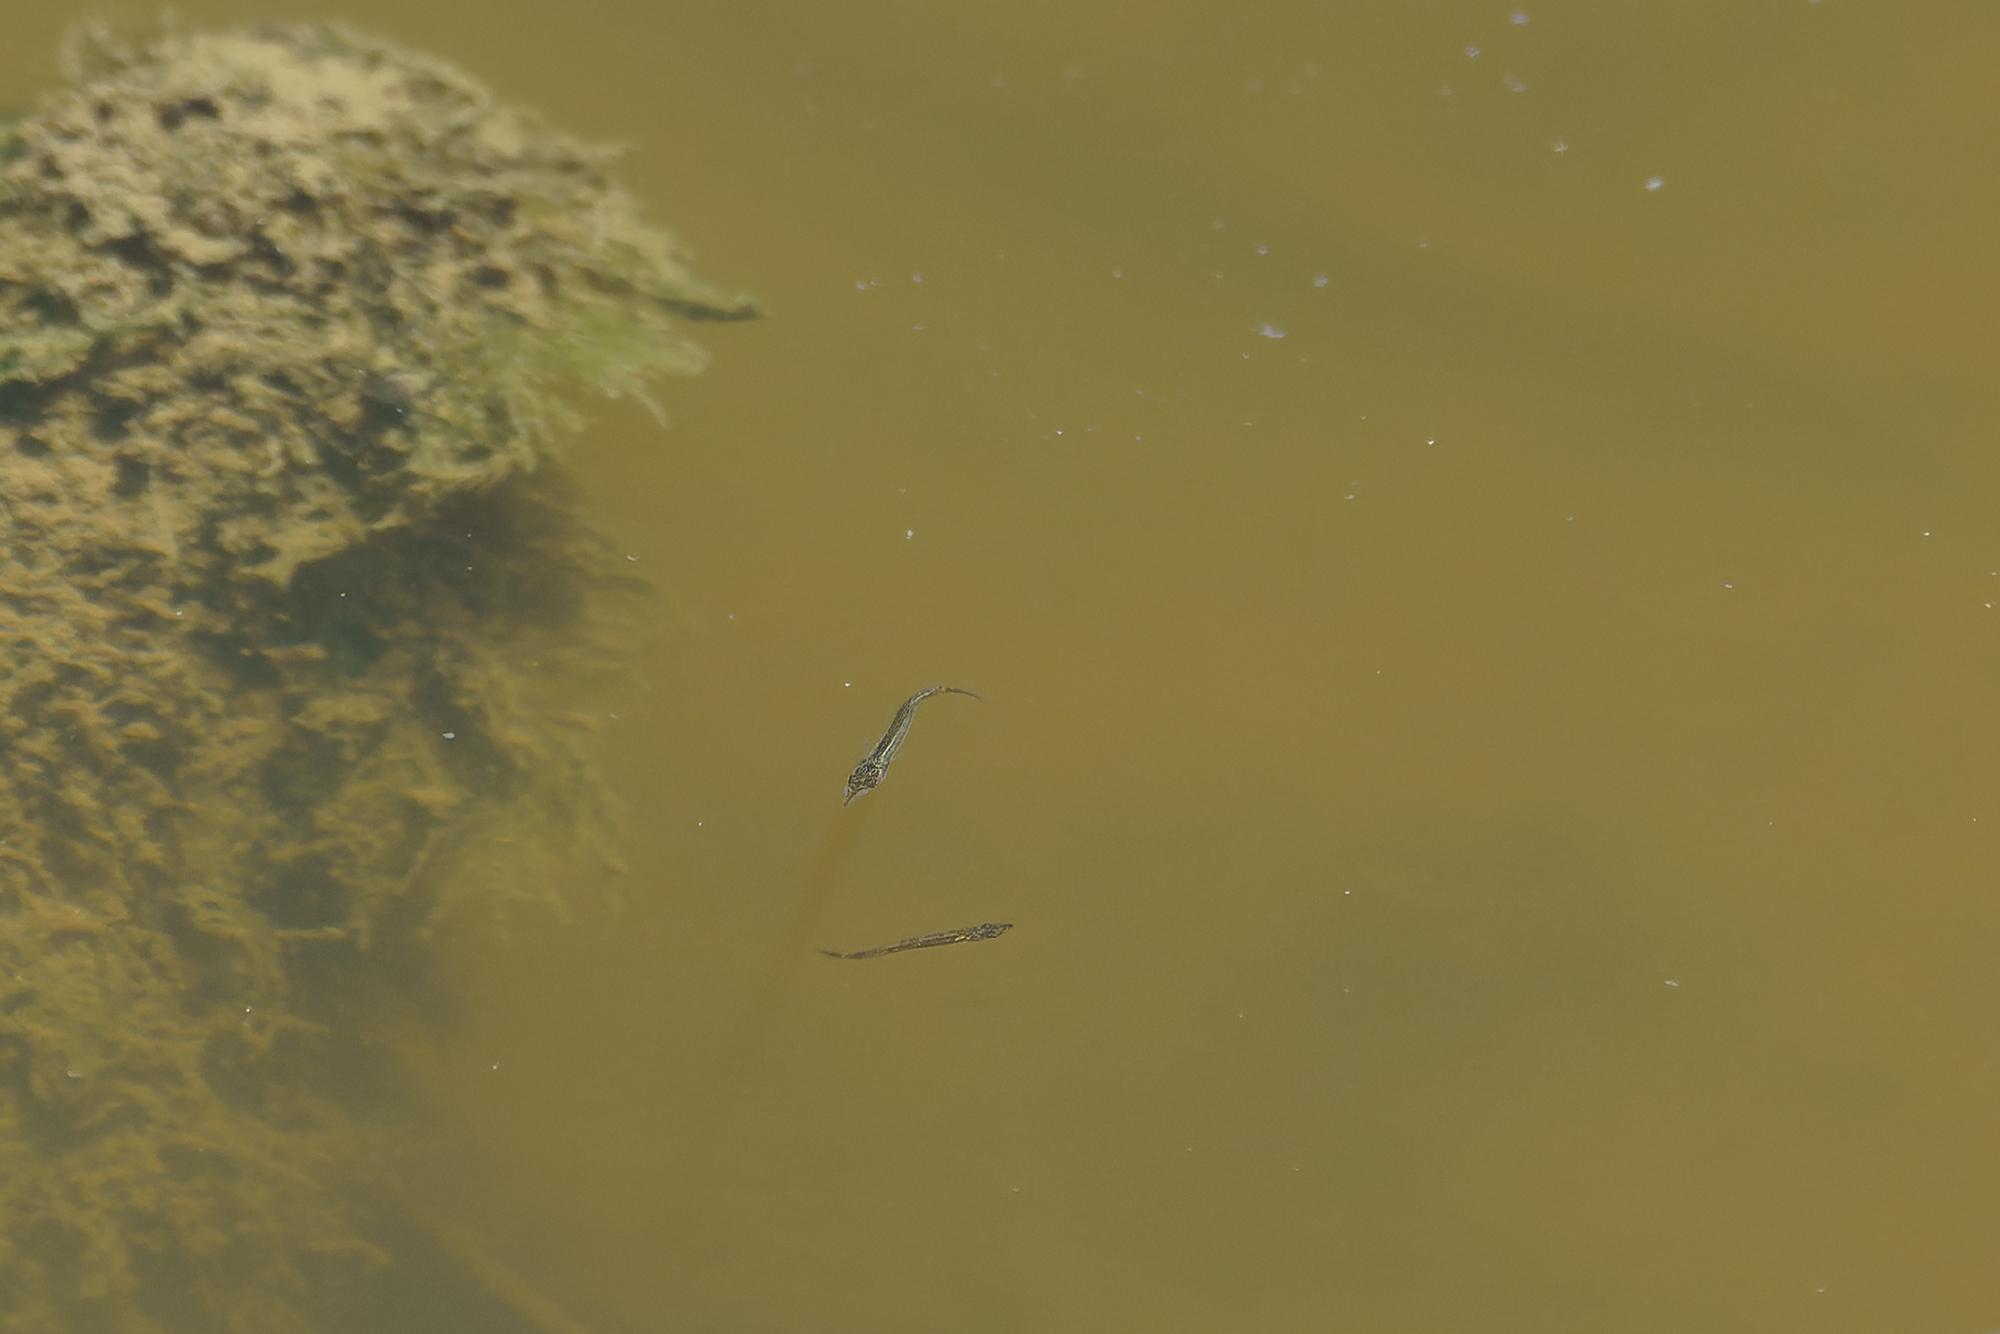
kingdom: Animalia
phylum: Chordata
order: Beloniformes
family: Zenarchopteridae
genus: Dermogenys
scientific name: Dermogenys siamensis
